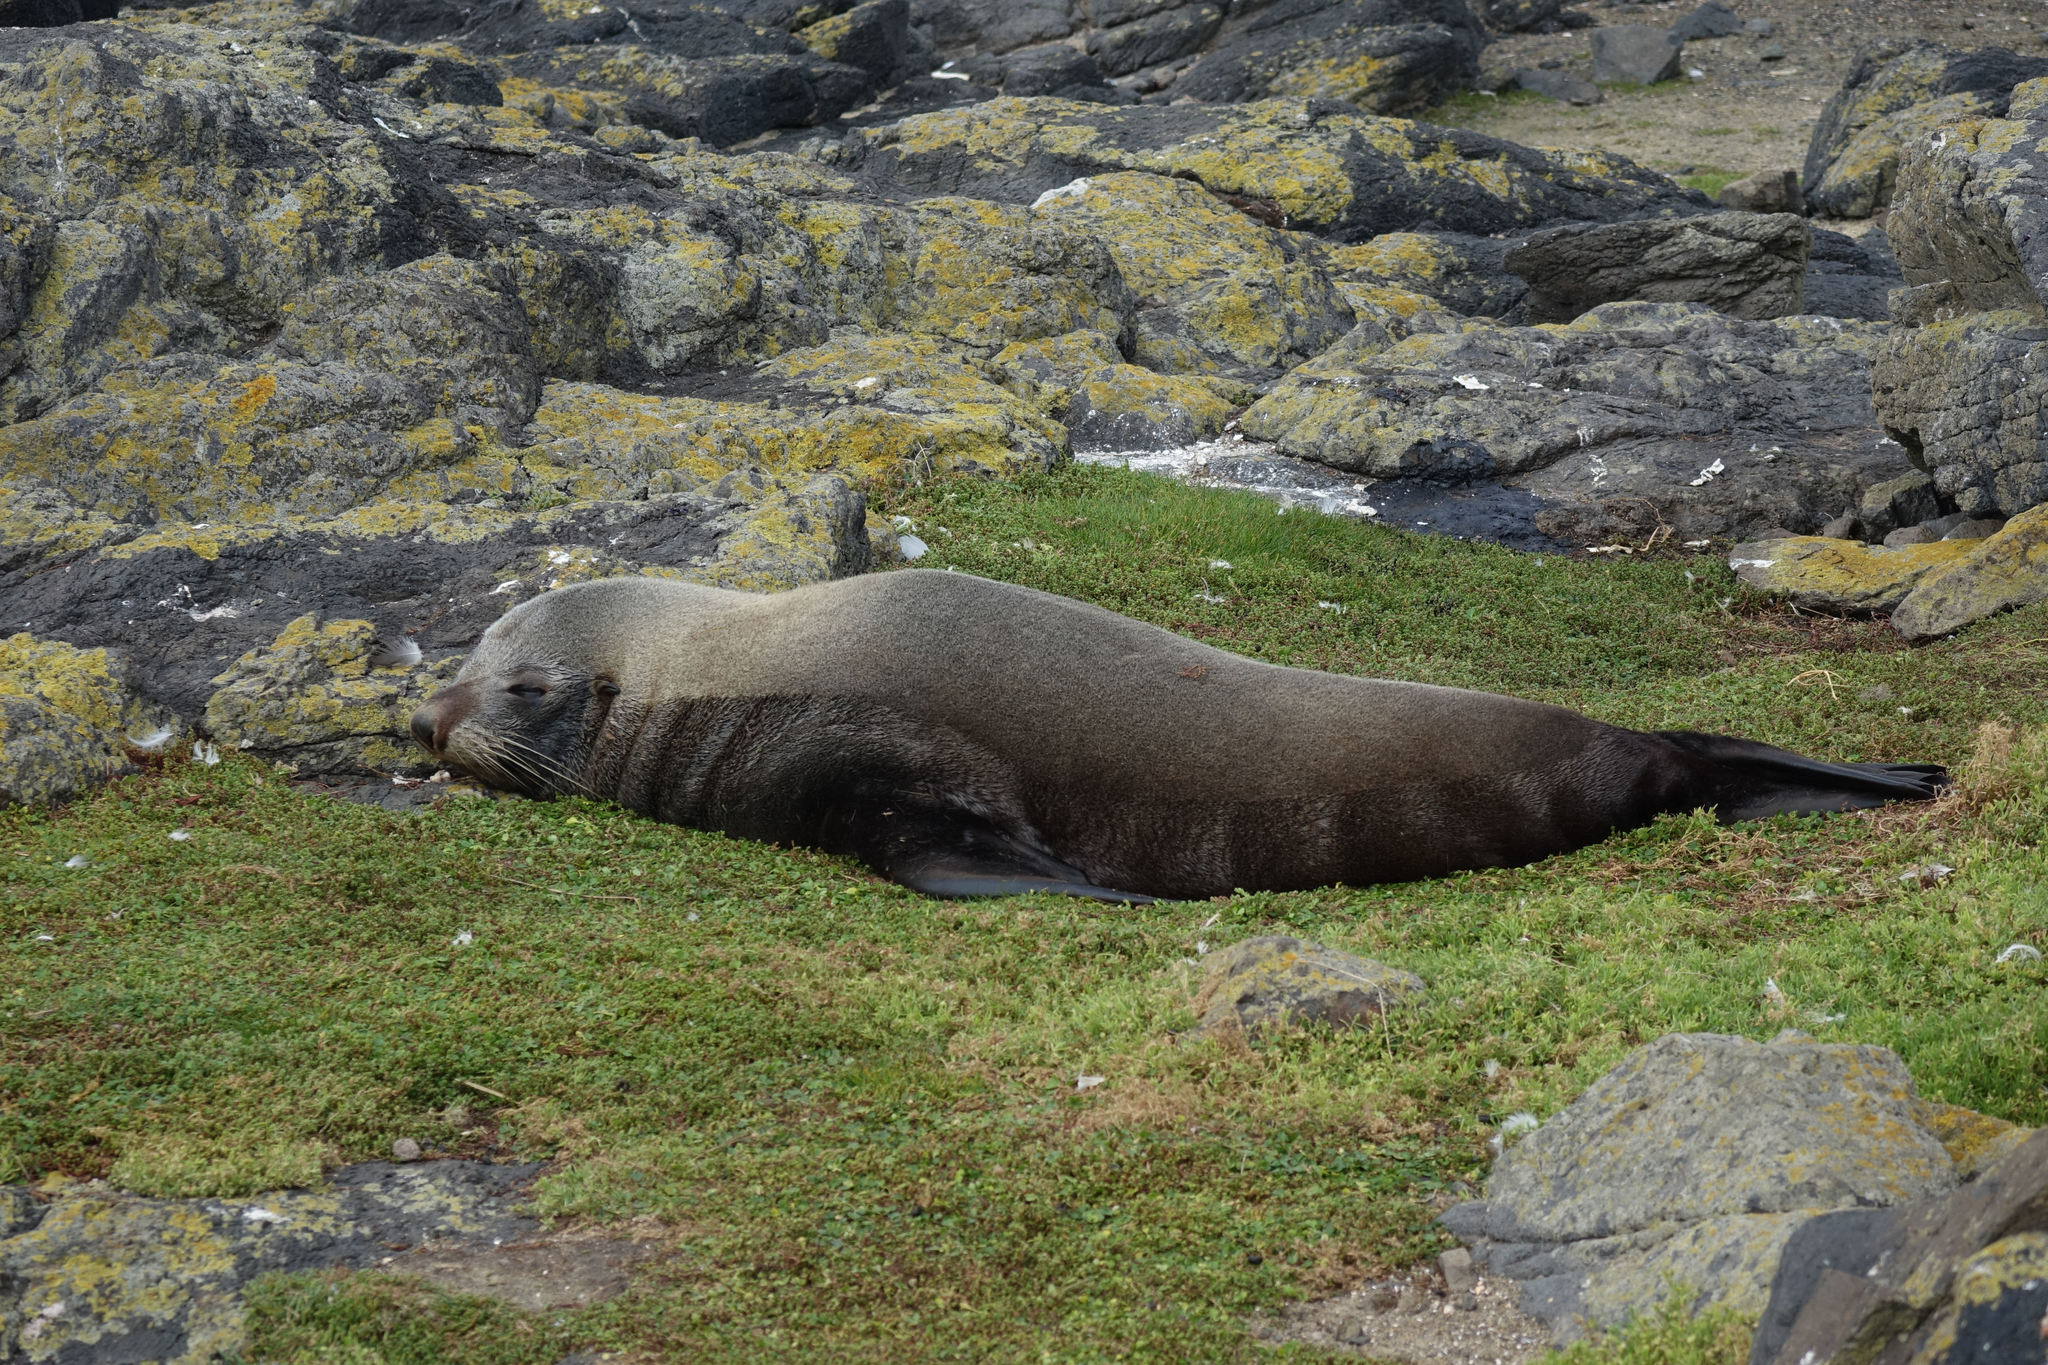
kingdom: Animalia
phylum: Chordata
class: Mammalia
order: Carnivora
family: Otariidae
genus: Arctocephalus
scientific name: Arctocephalus forsteri
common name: New zealand fur seal
